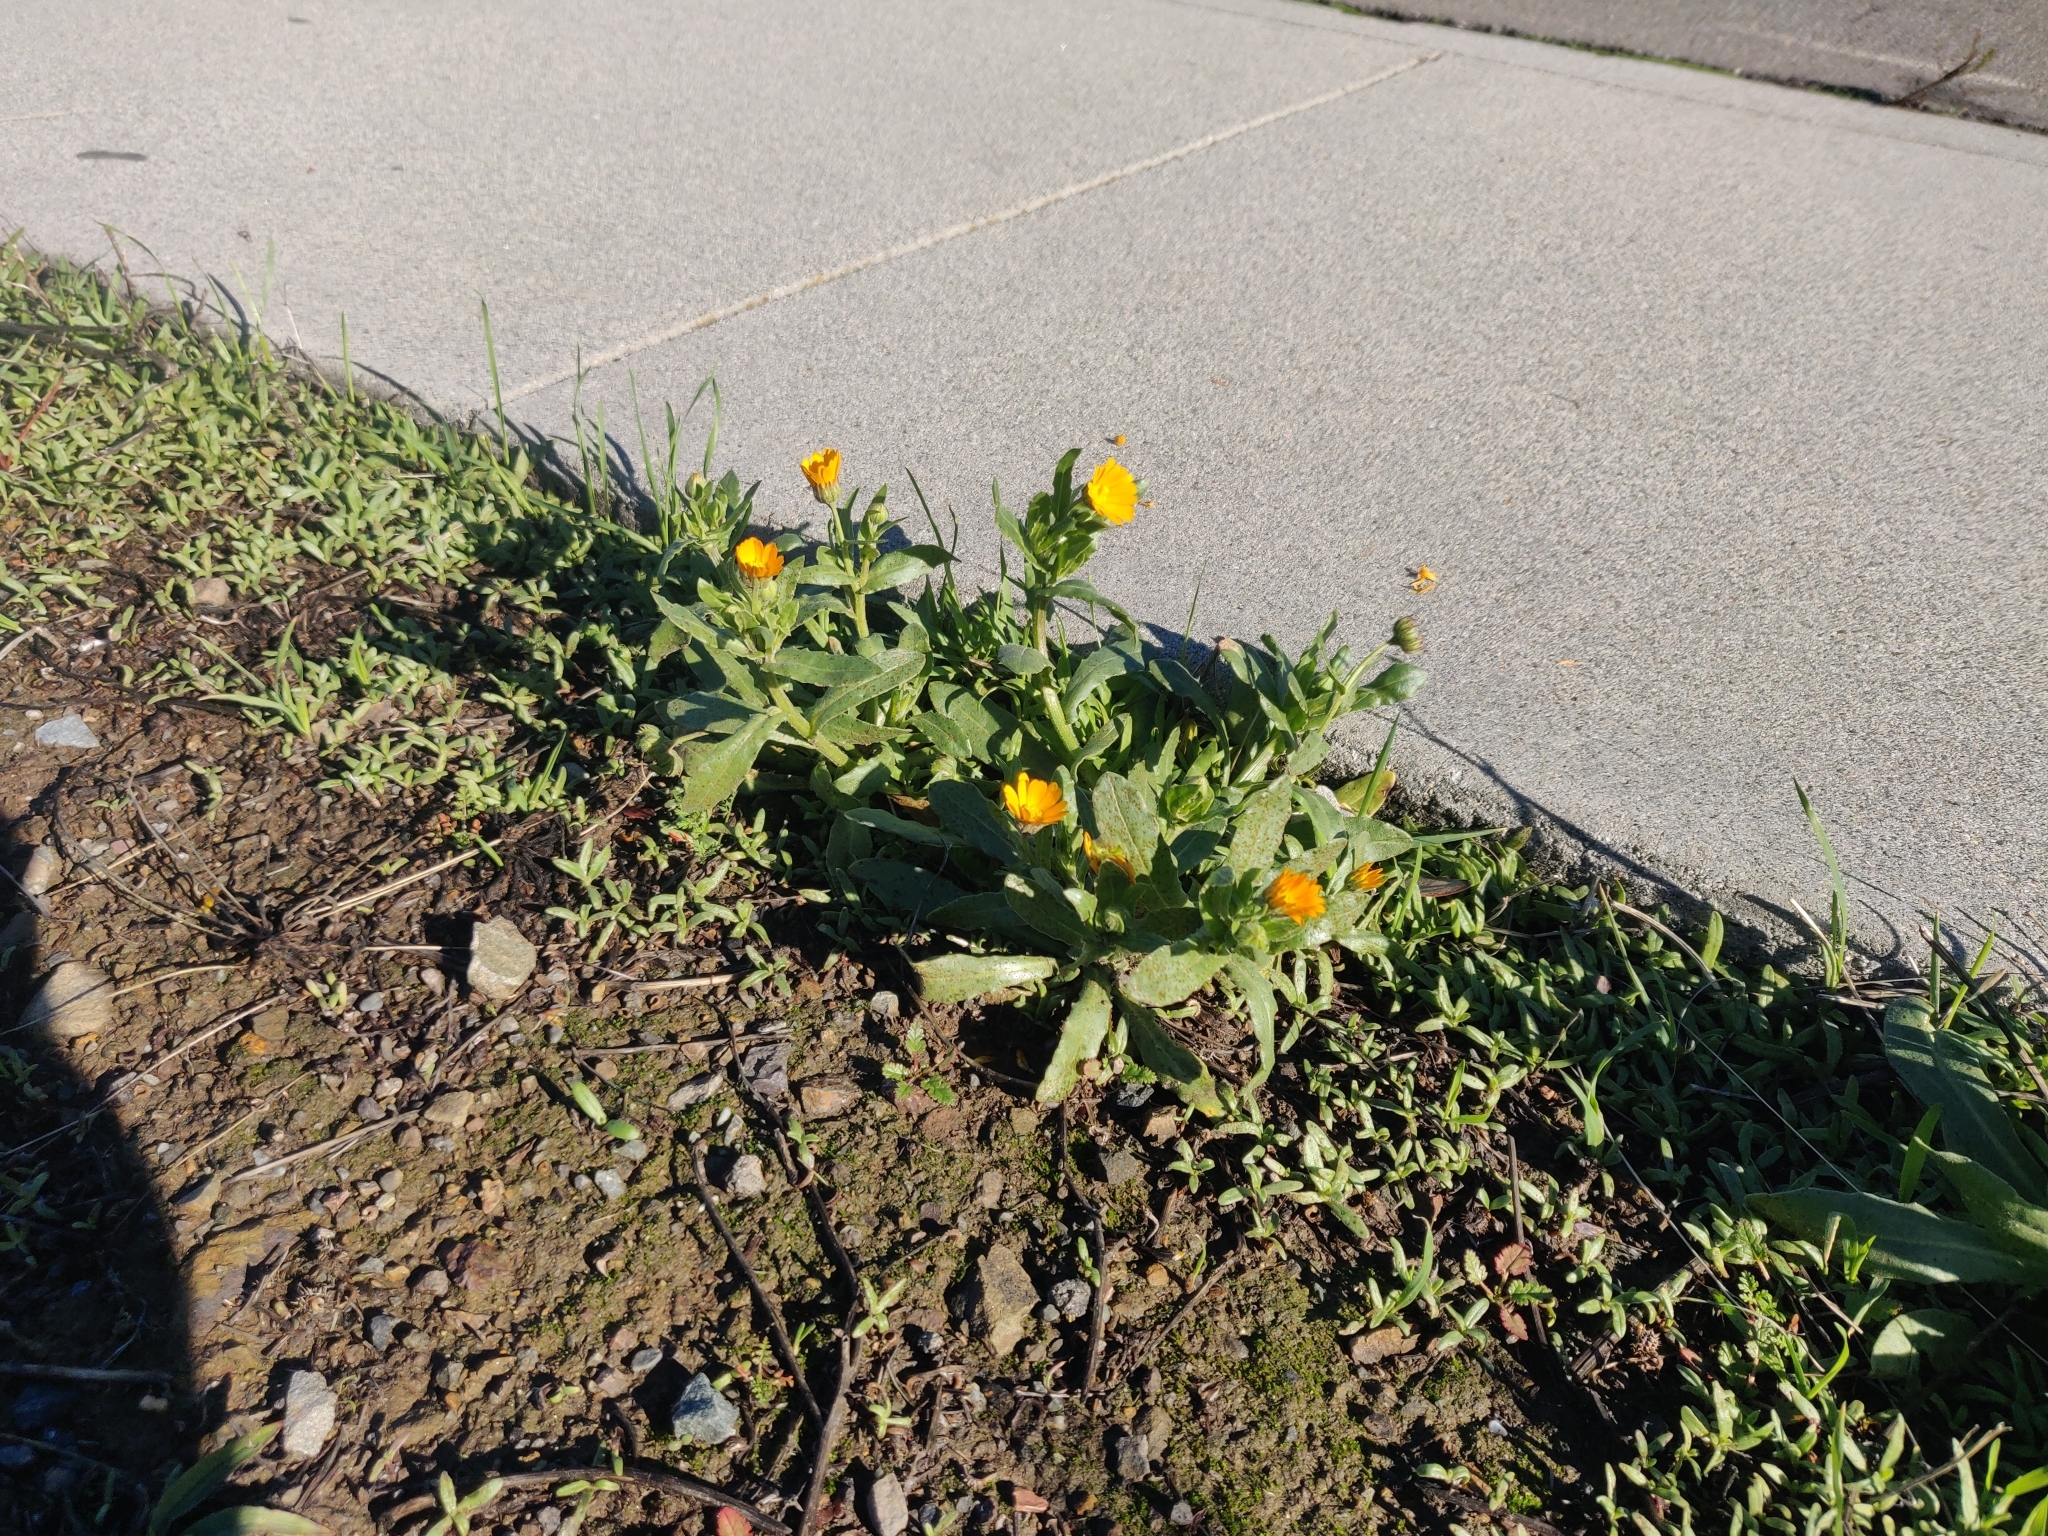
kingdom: Plantae
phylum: Tracheophyta
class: Magnoliopsida
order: Asterales
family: Asteraceae
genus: Calendula
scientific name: Calendula arvensis
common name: Field marigold
